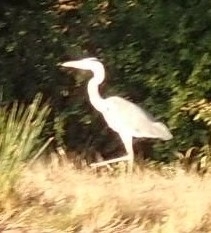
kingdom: Animalia
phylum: Chordata
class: Aves
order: Pelecaniformes
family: Ardeidae
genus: Ardea
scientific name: Ardea cinerea
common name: Grey heron
